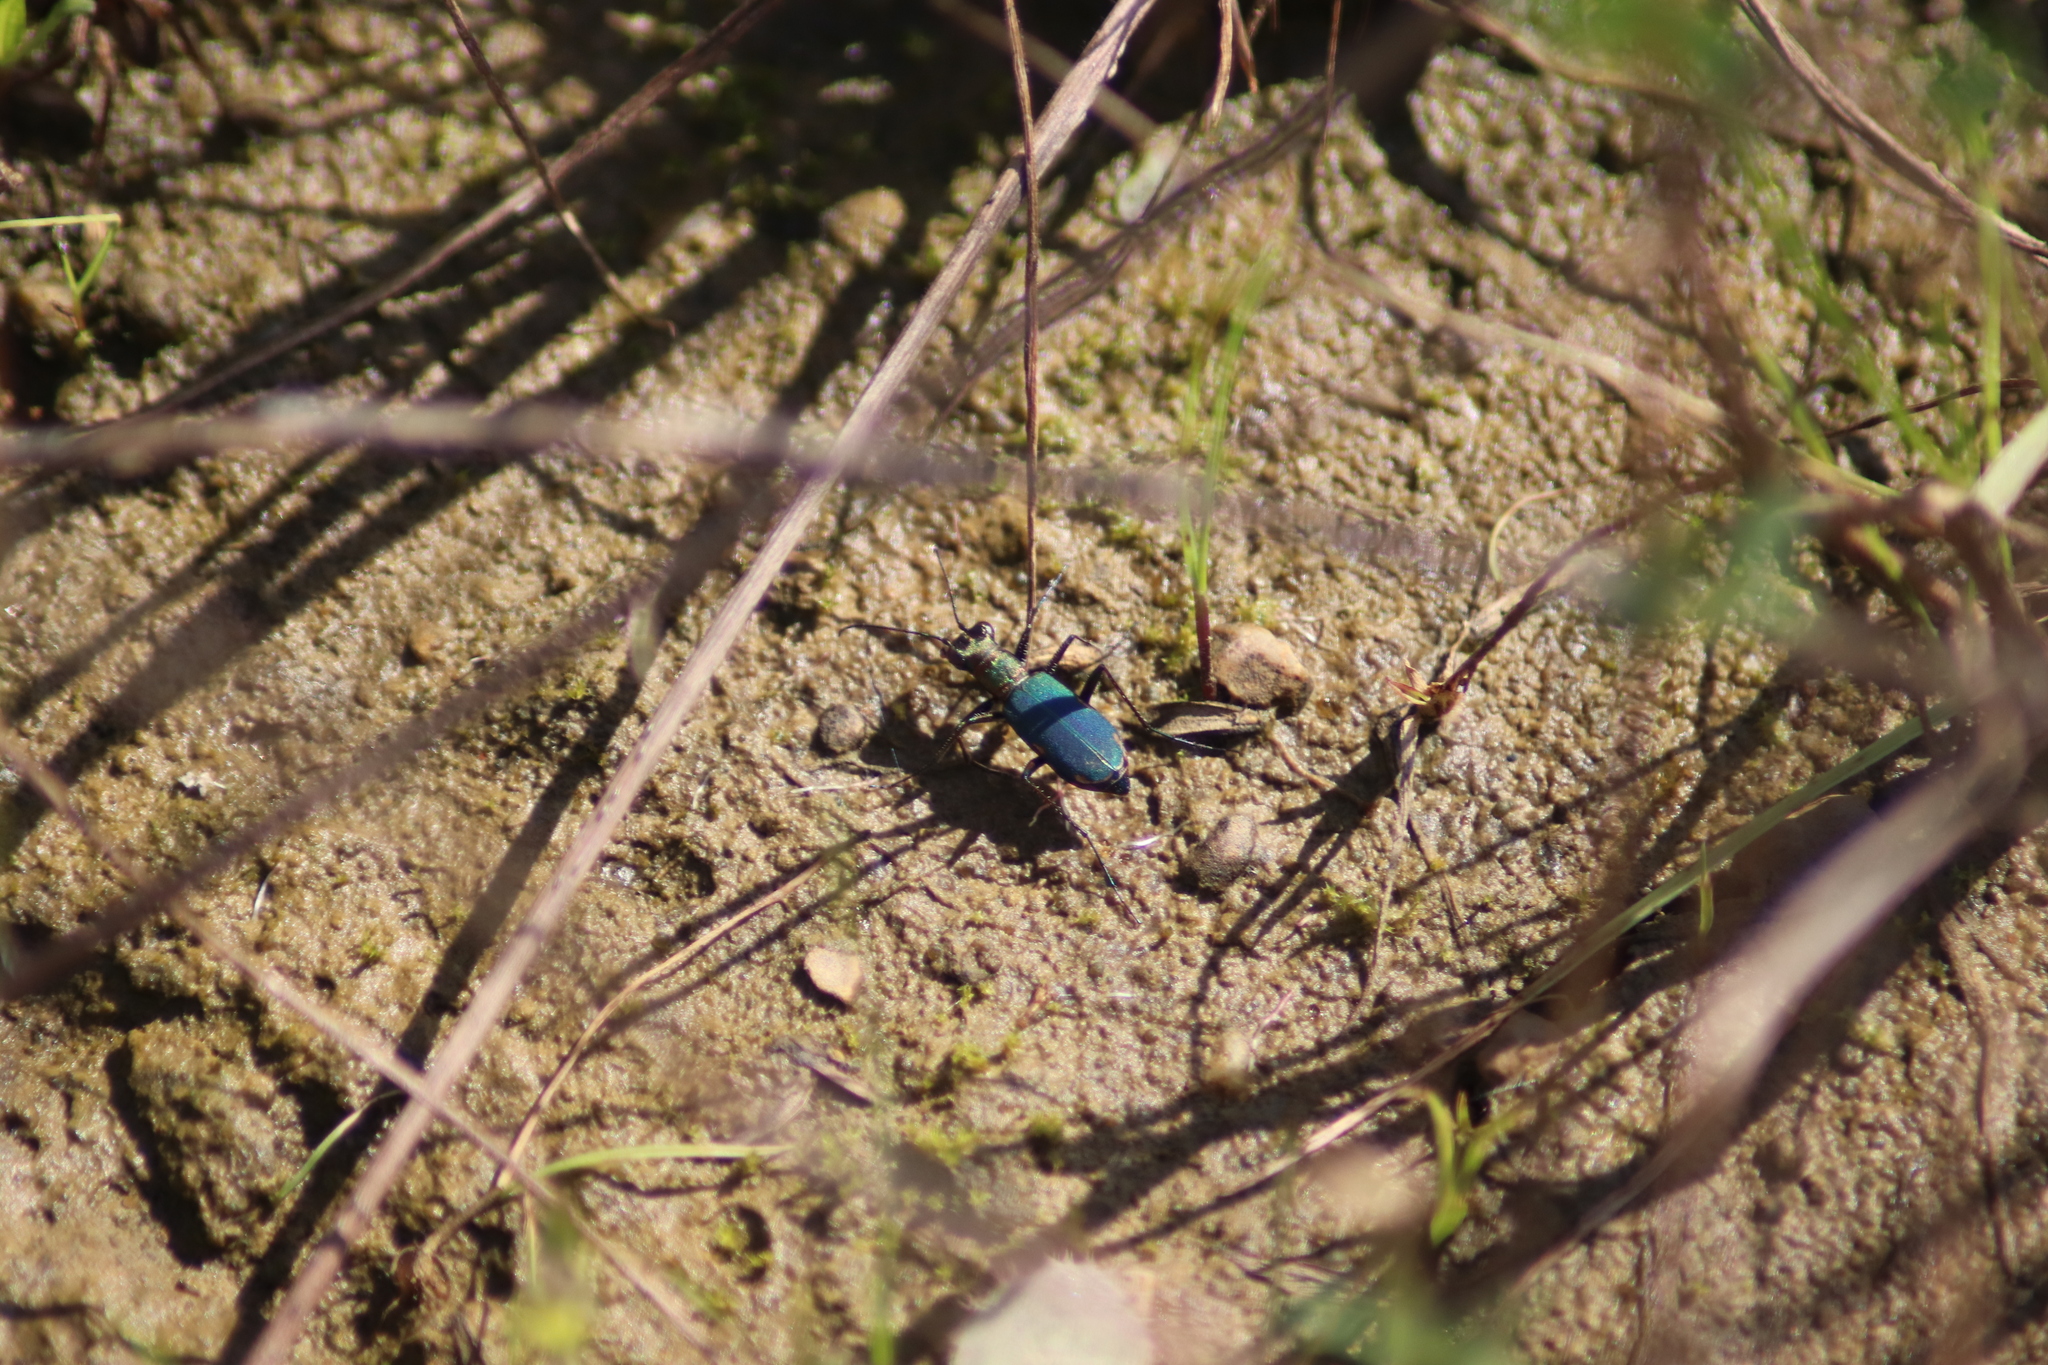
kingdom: Animalia
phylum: Arthropoda
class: Insecta
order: Coleoptera
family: Carabidae
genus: Cylindera
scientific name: Cylindera germanica
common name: Cliff tiger beetle
